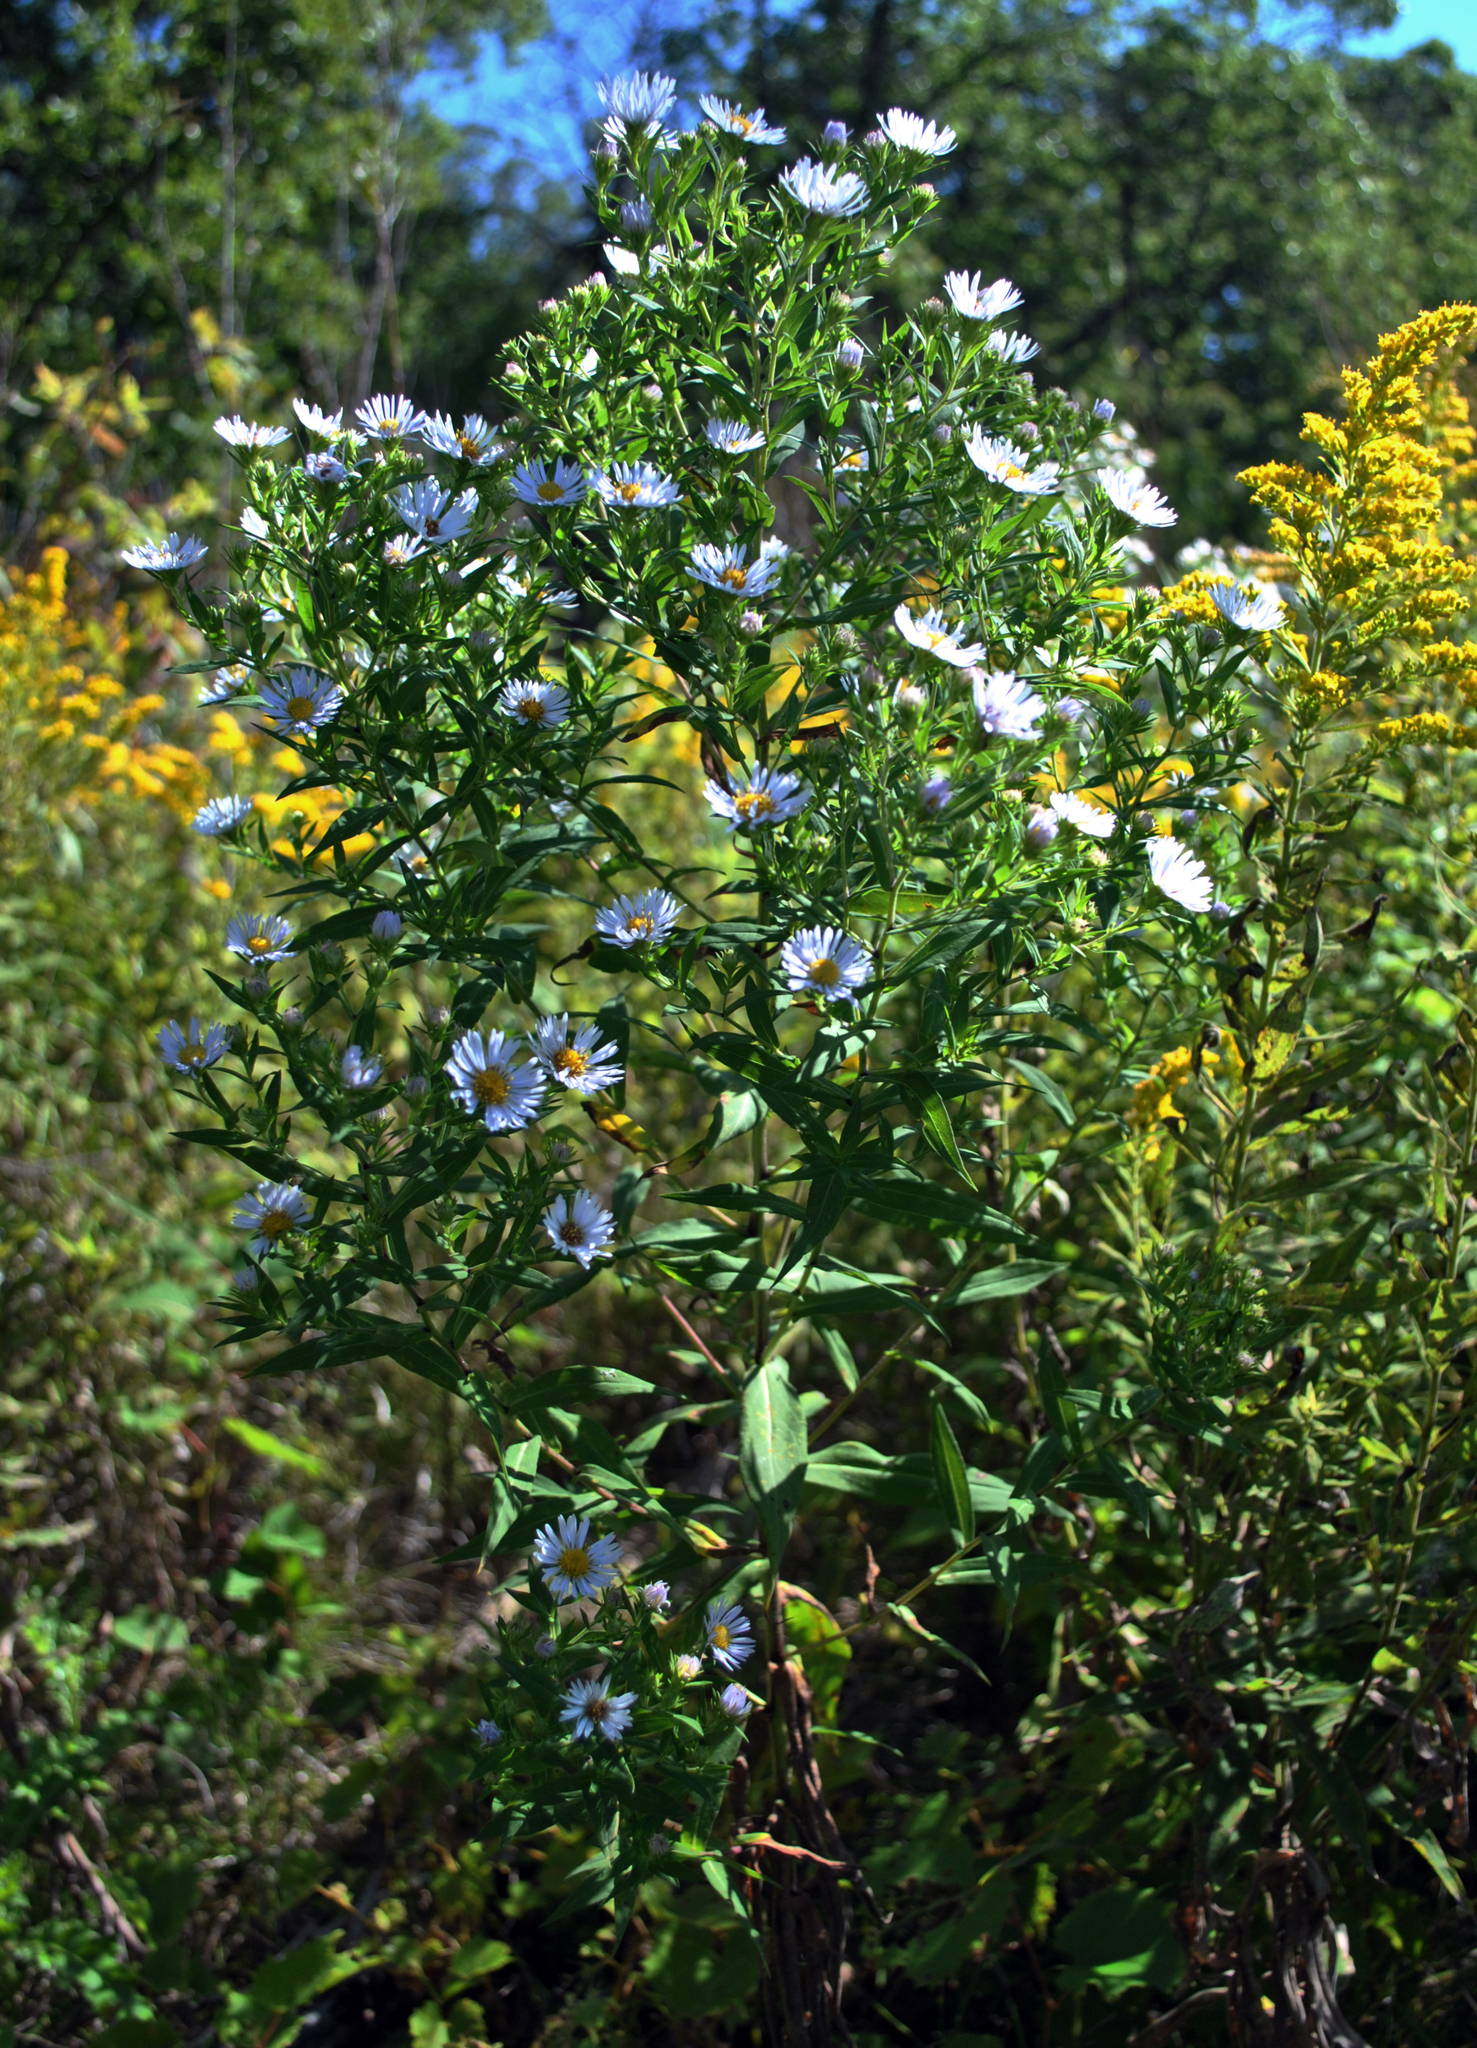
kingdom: Plantae
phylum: Tracheophyta
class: Magnoliopsida
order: Asterales
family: Asteraceae
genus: Symphyotrichum
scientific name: Symphyotrichum firmum
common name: Shining aster
